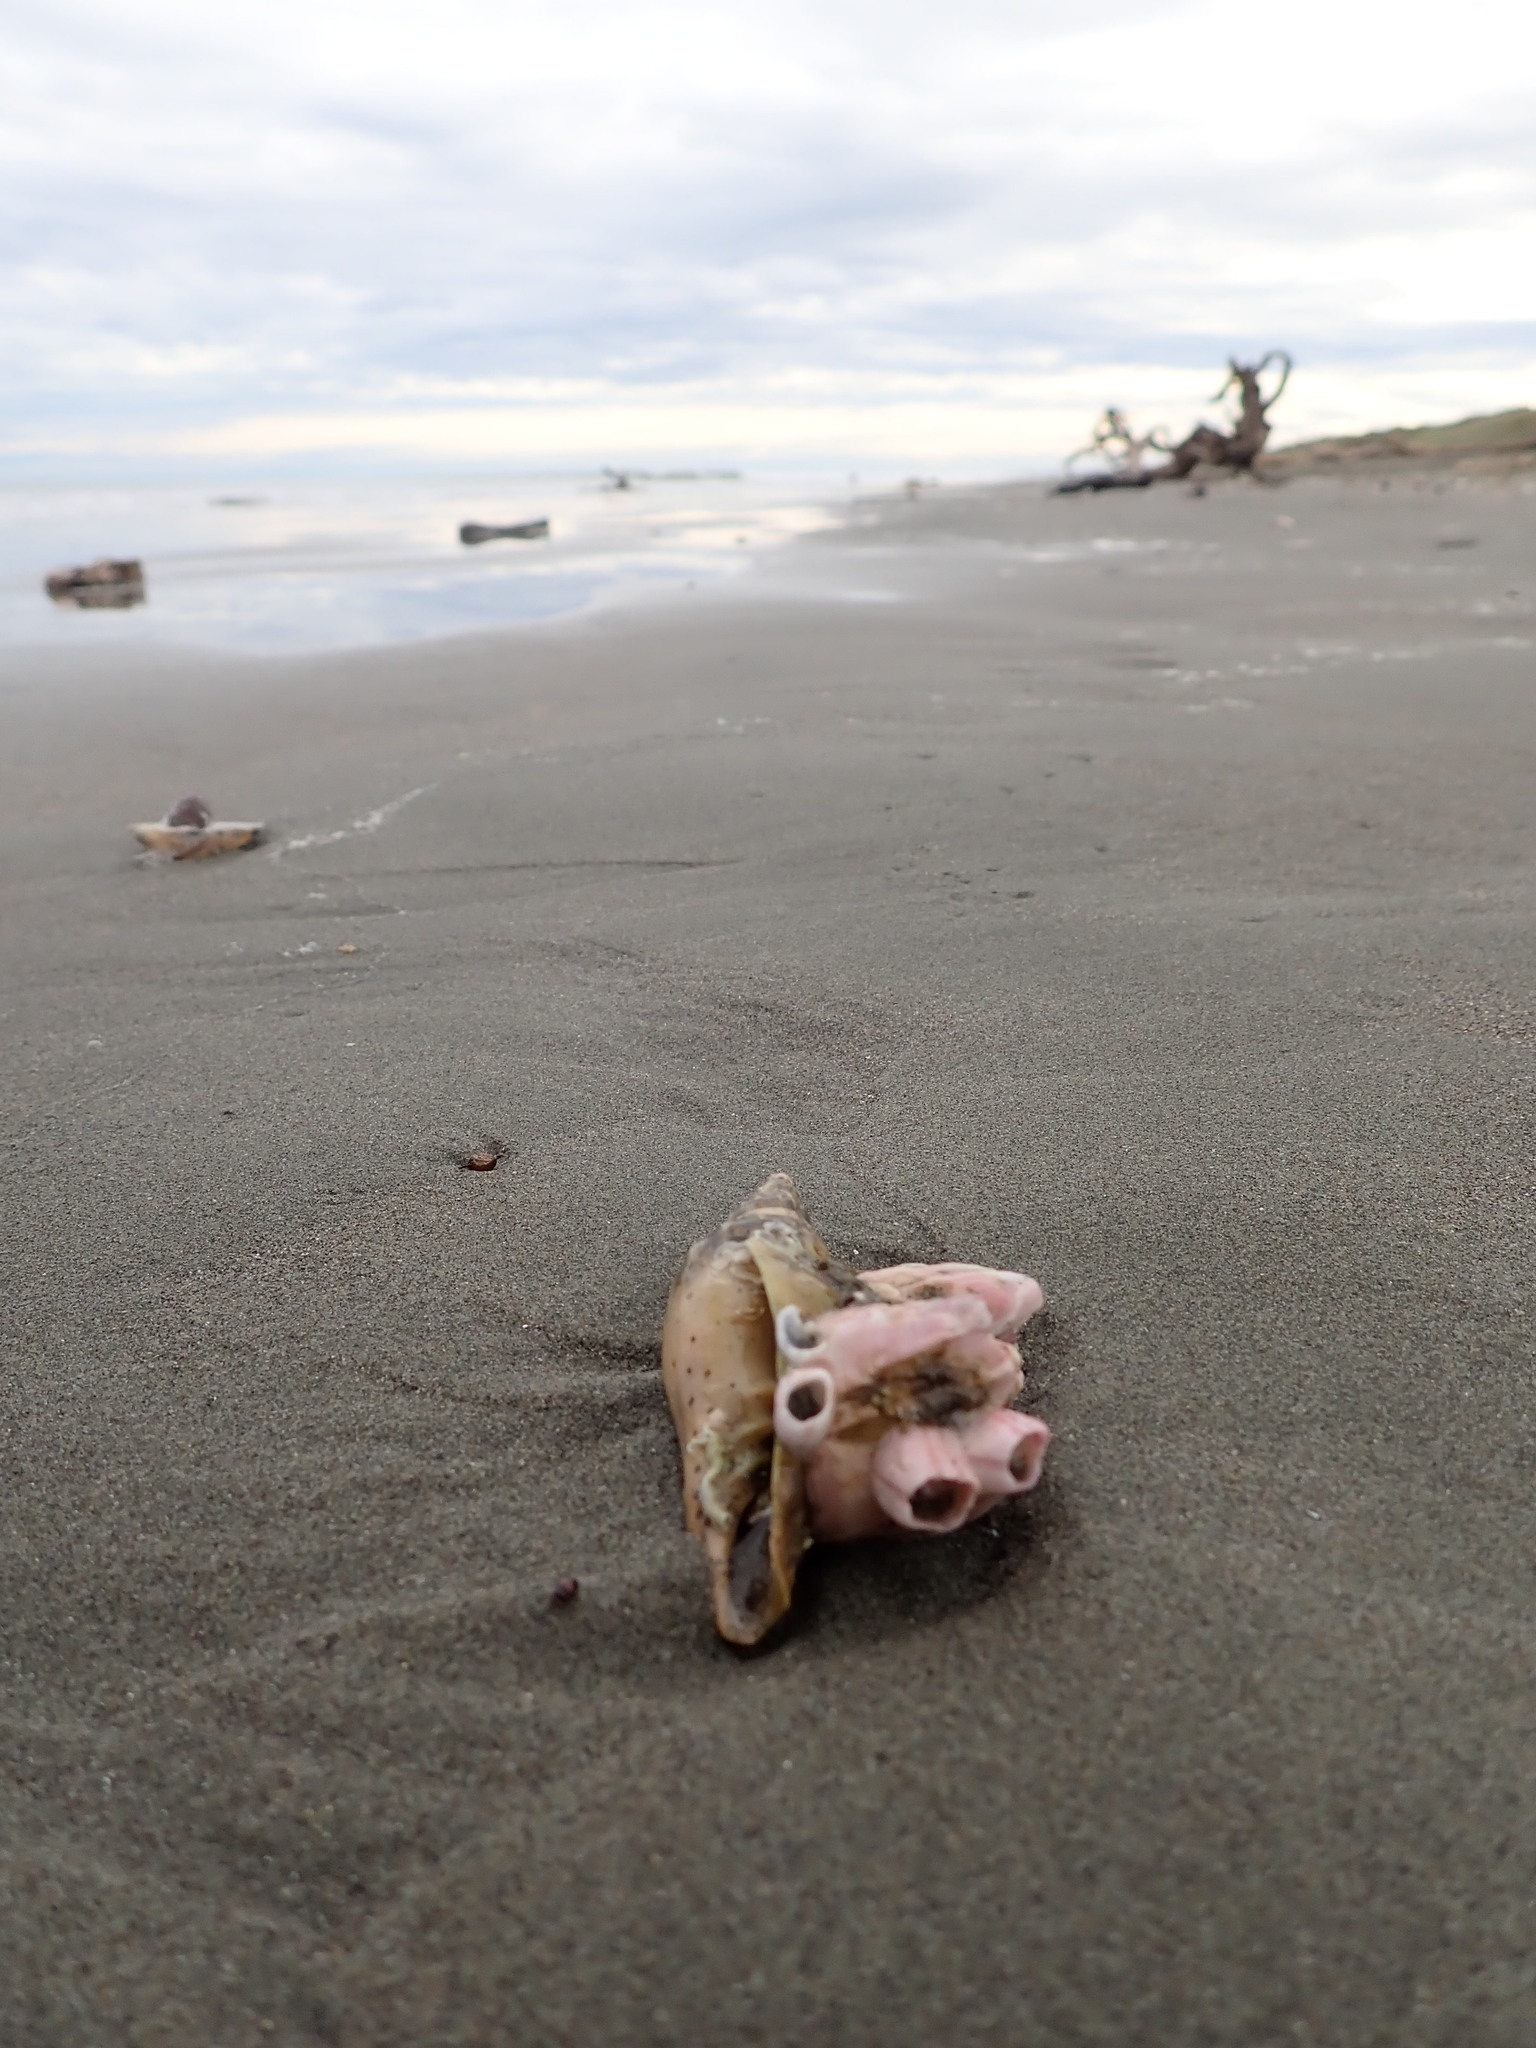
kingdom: Animalia
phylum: Mollusca
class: Gastropoda
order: Neogastropoda
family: Volutidae
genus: Alcithoe
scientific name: Alcithoe fusus
